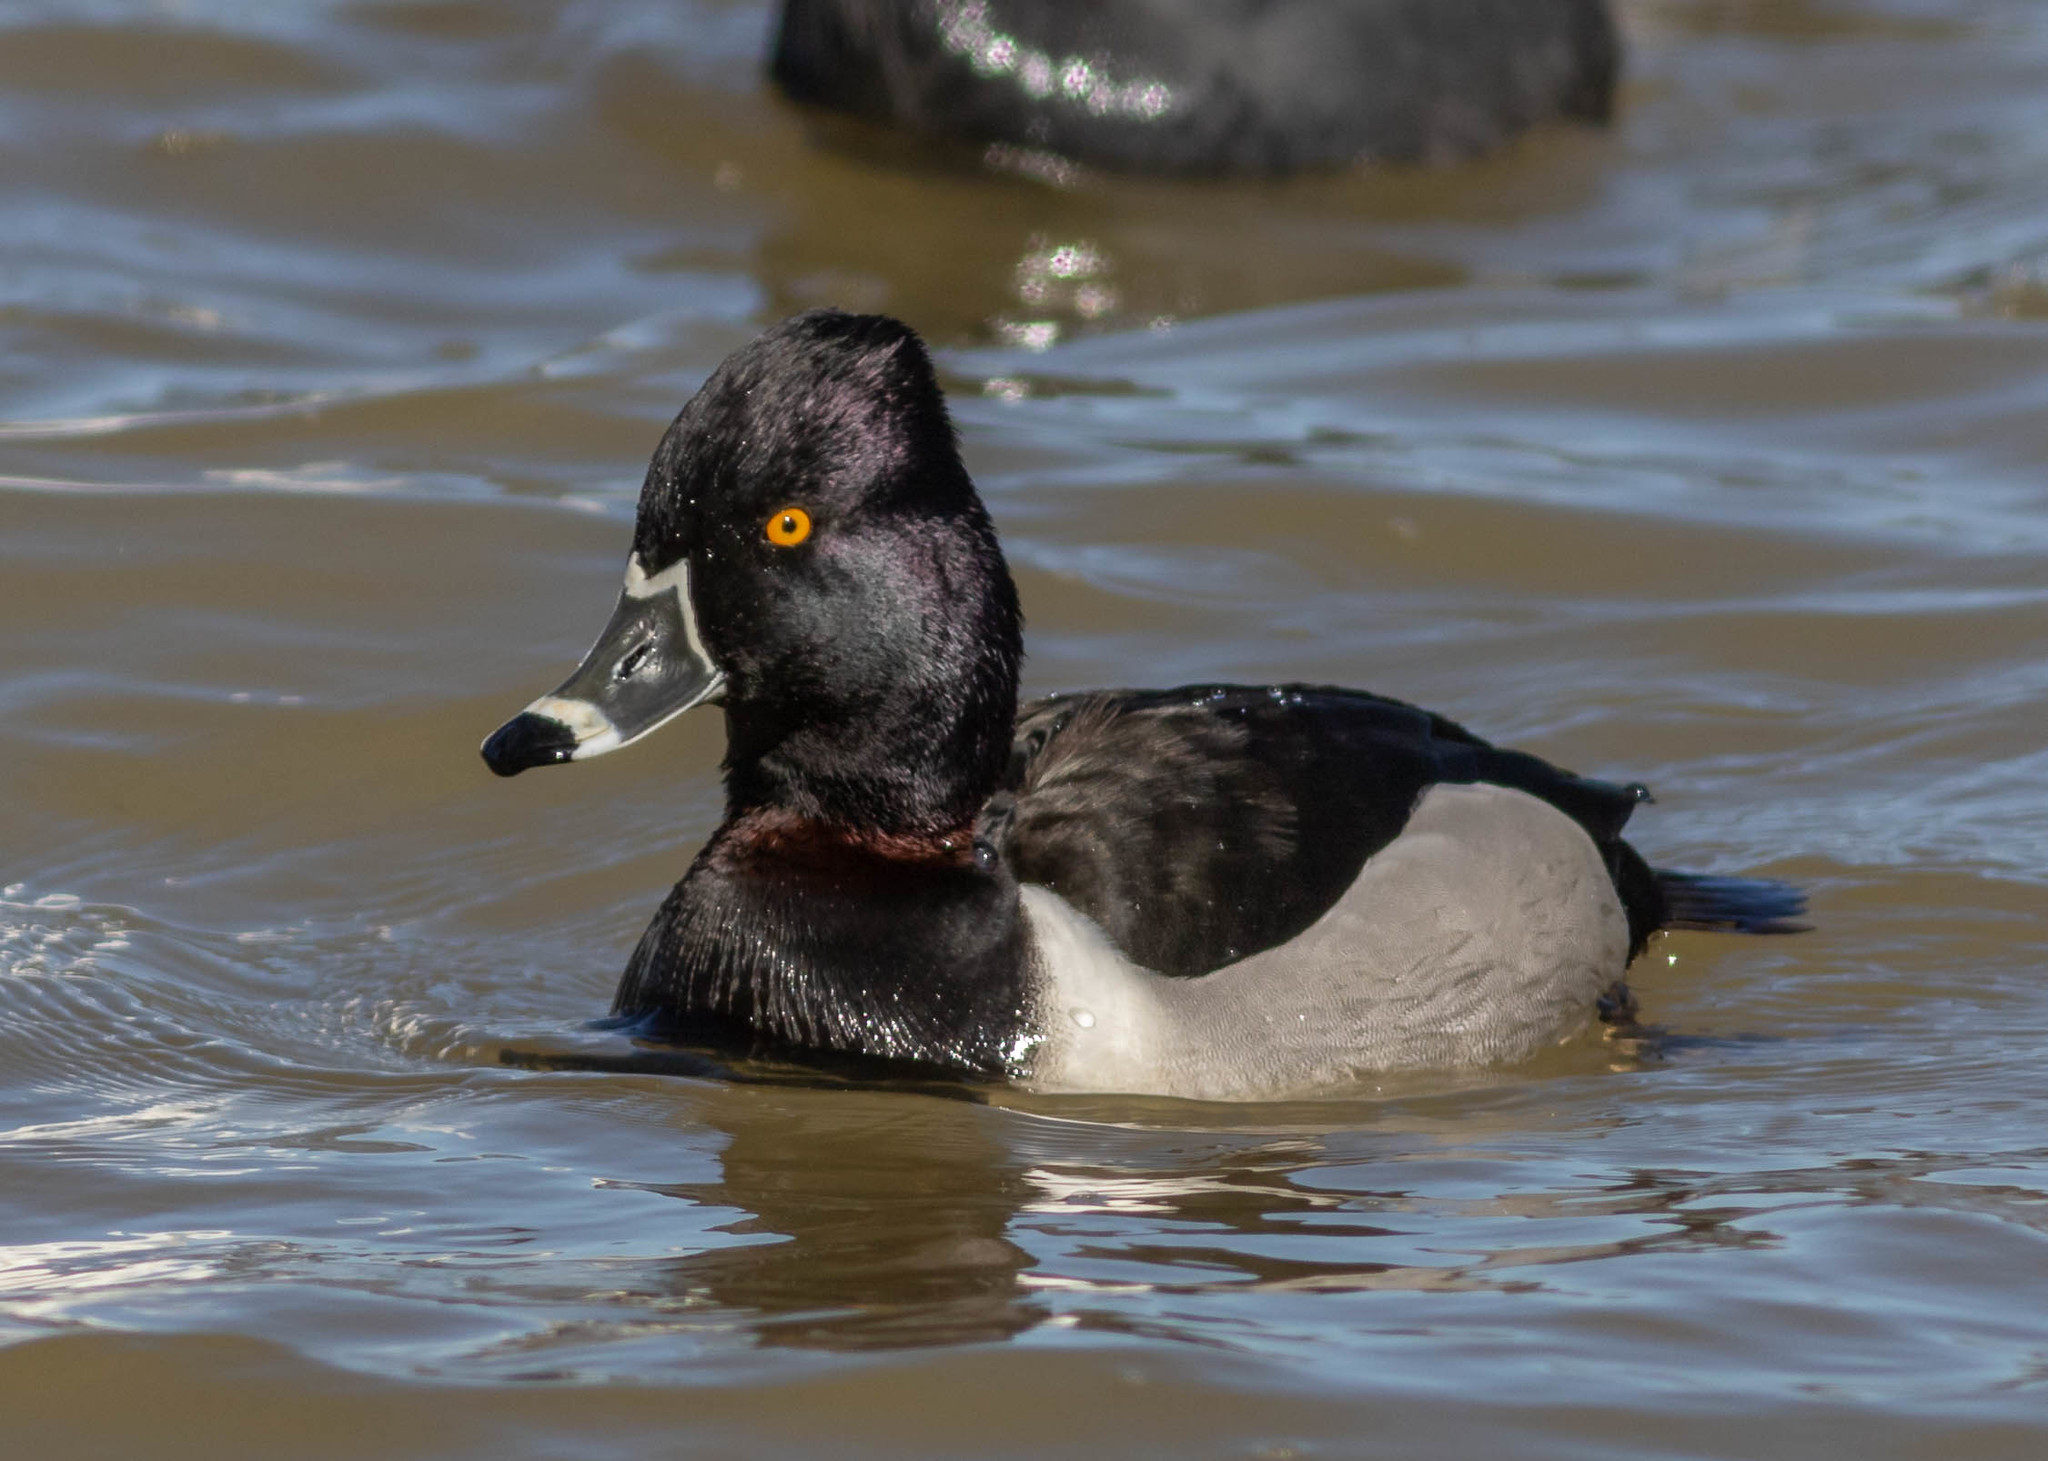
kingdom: Animalia
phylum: Chordata
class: Aves
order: Anseriformes
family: Anatidae
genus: Aythya
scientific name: Aythya collaris
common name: Ring-necked duck
